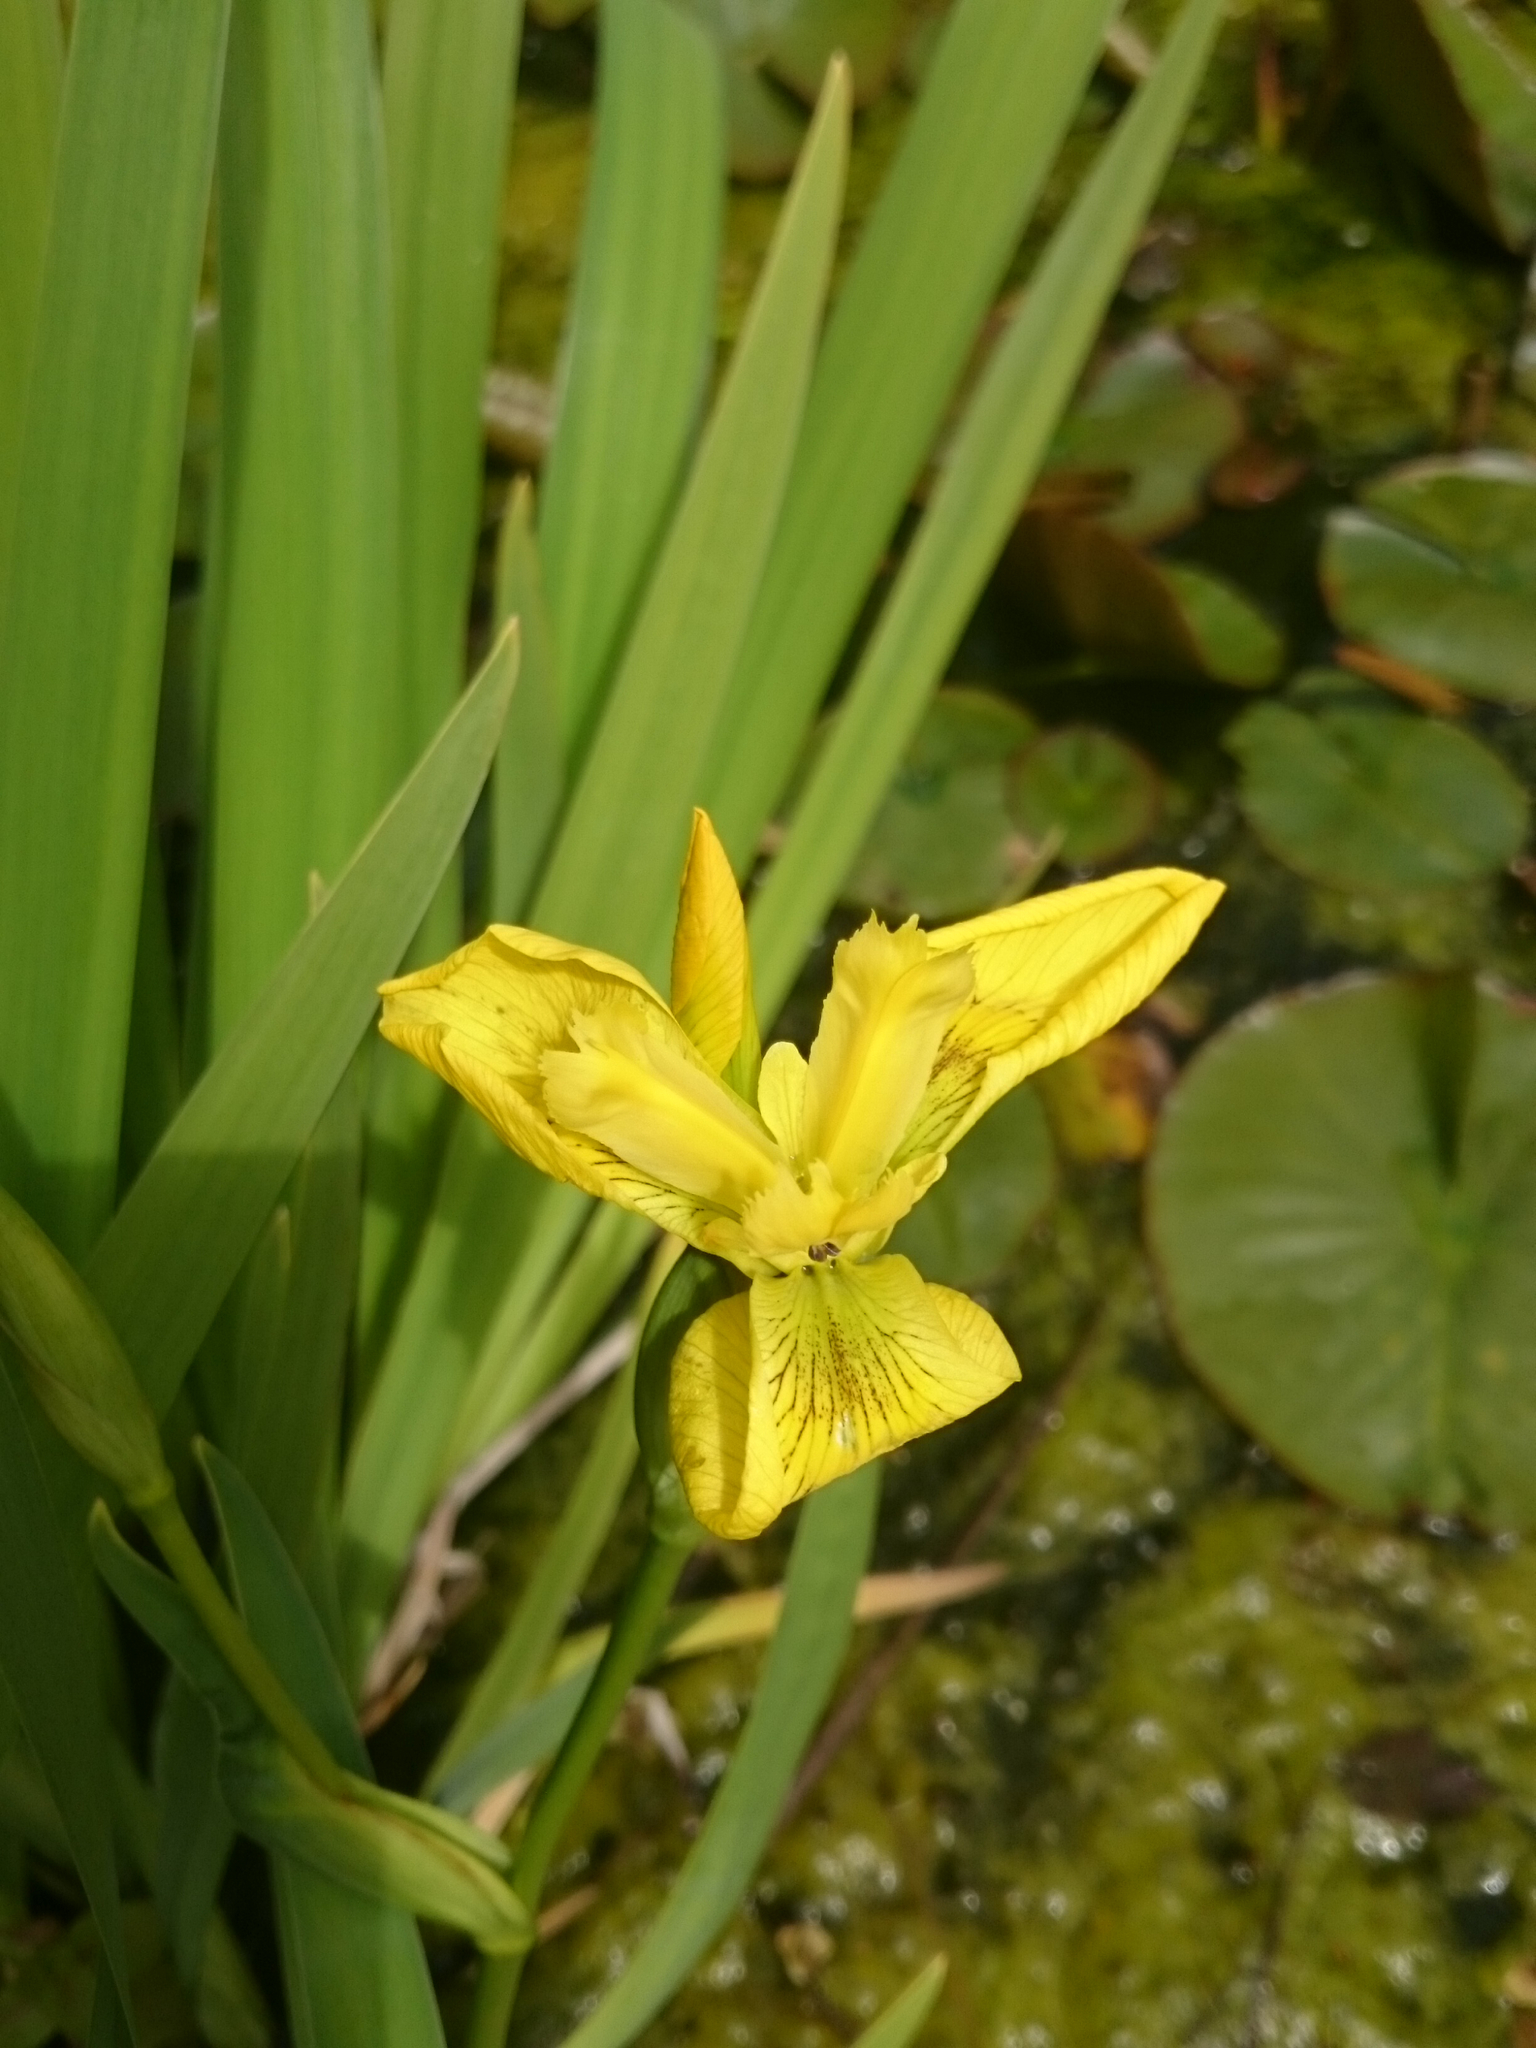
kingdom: Plantae
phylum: Tracheophyta
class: Liliopsida
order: Asparagales
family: Iridaceae
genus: Iris
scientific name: Iris pseudacorus
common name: Yellow flag
